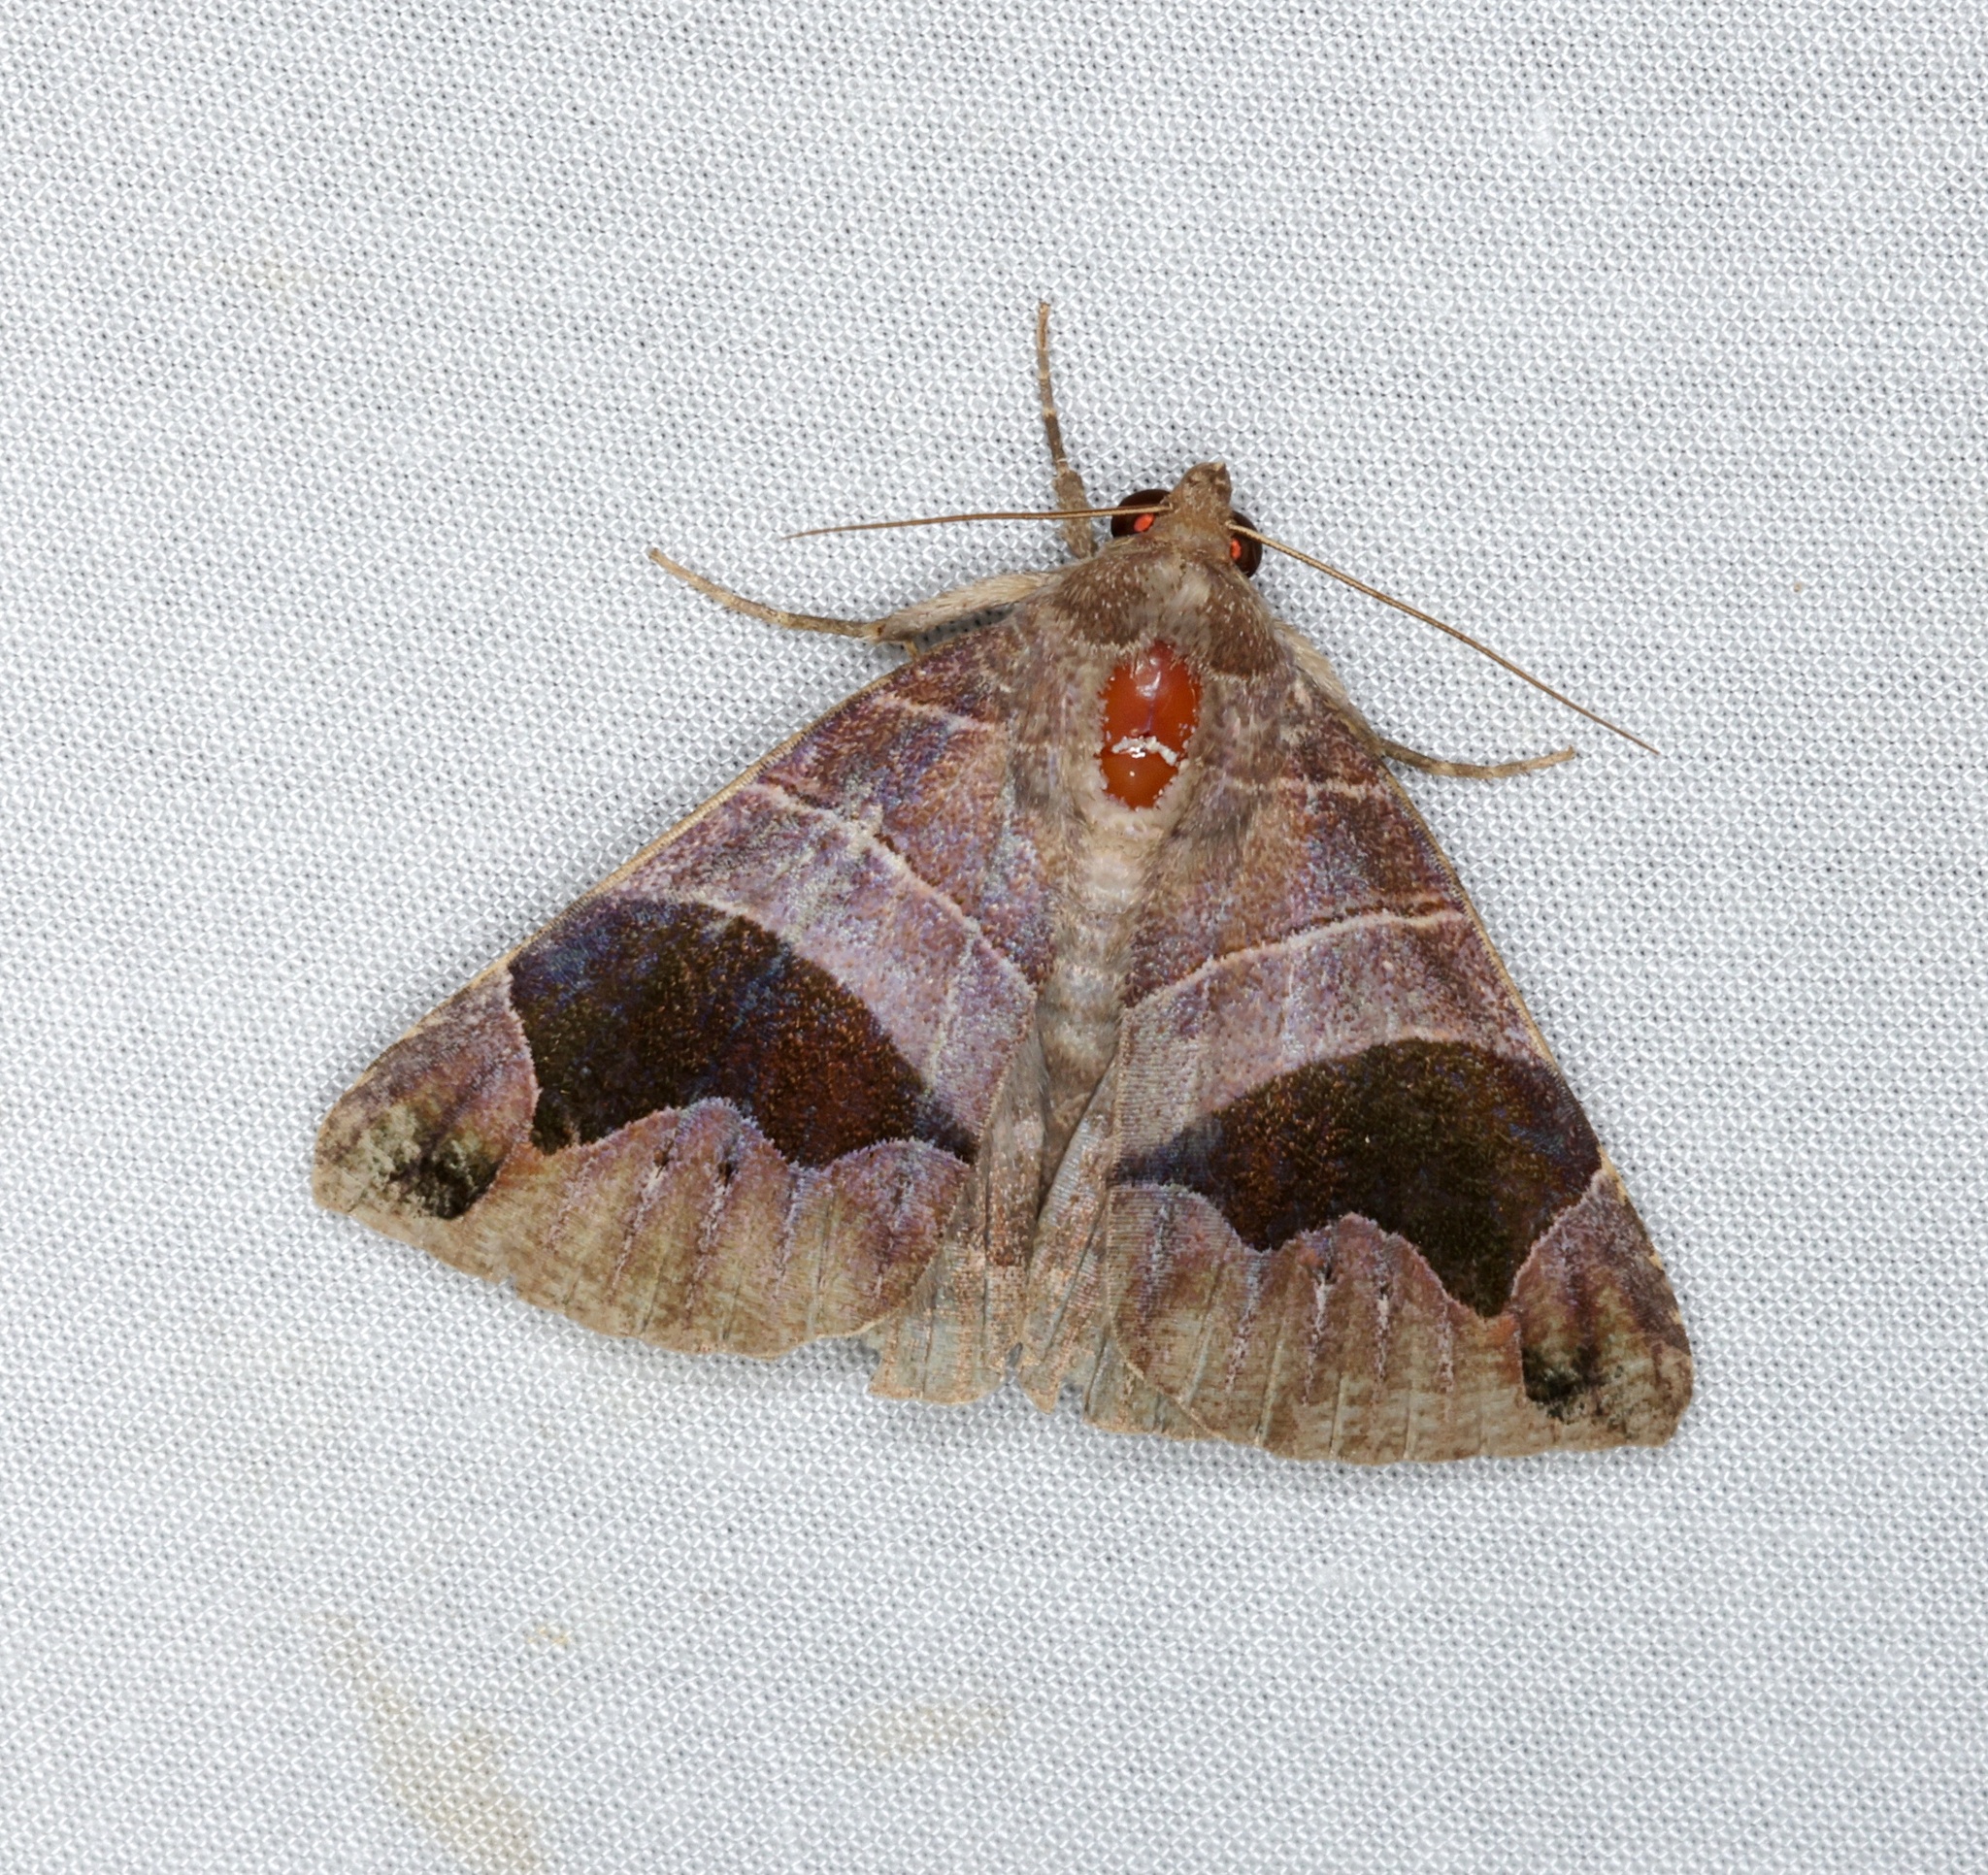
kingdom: Animalia
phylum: Arthropoda
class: Insecta
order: Lepidoptera
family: Erebidae
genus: Bastilla
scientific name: Bastilla joviana
